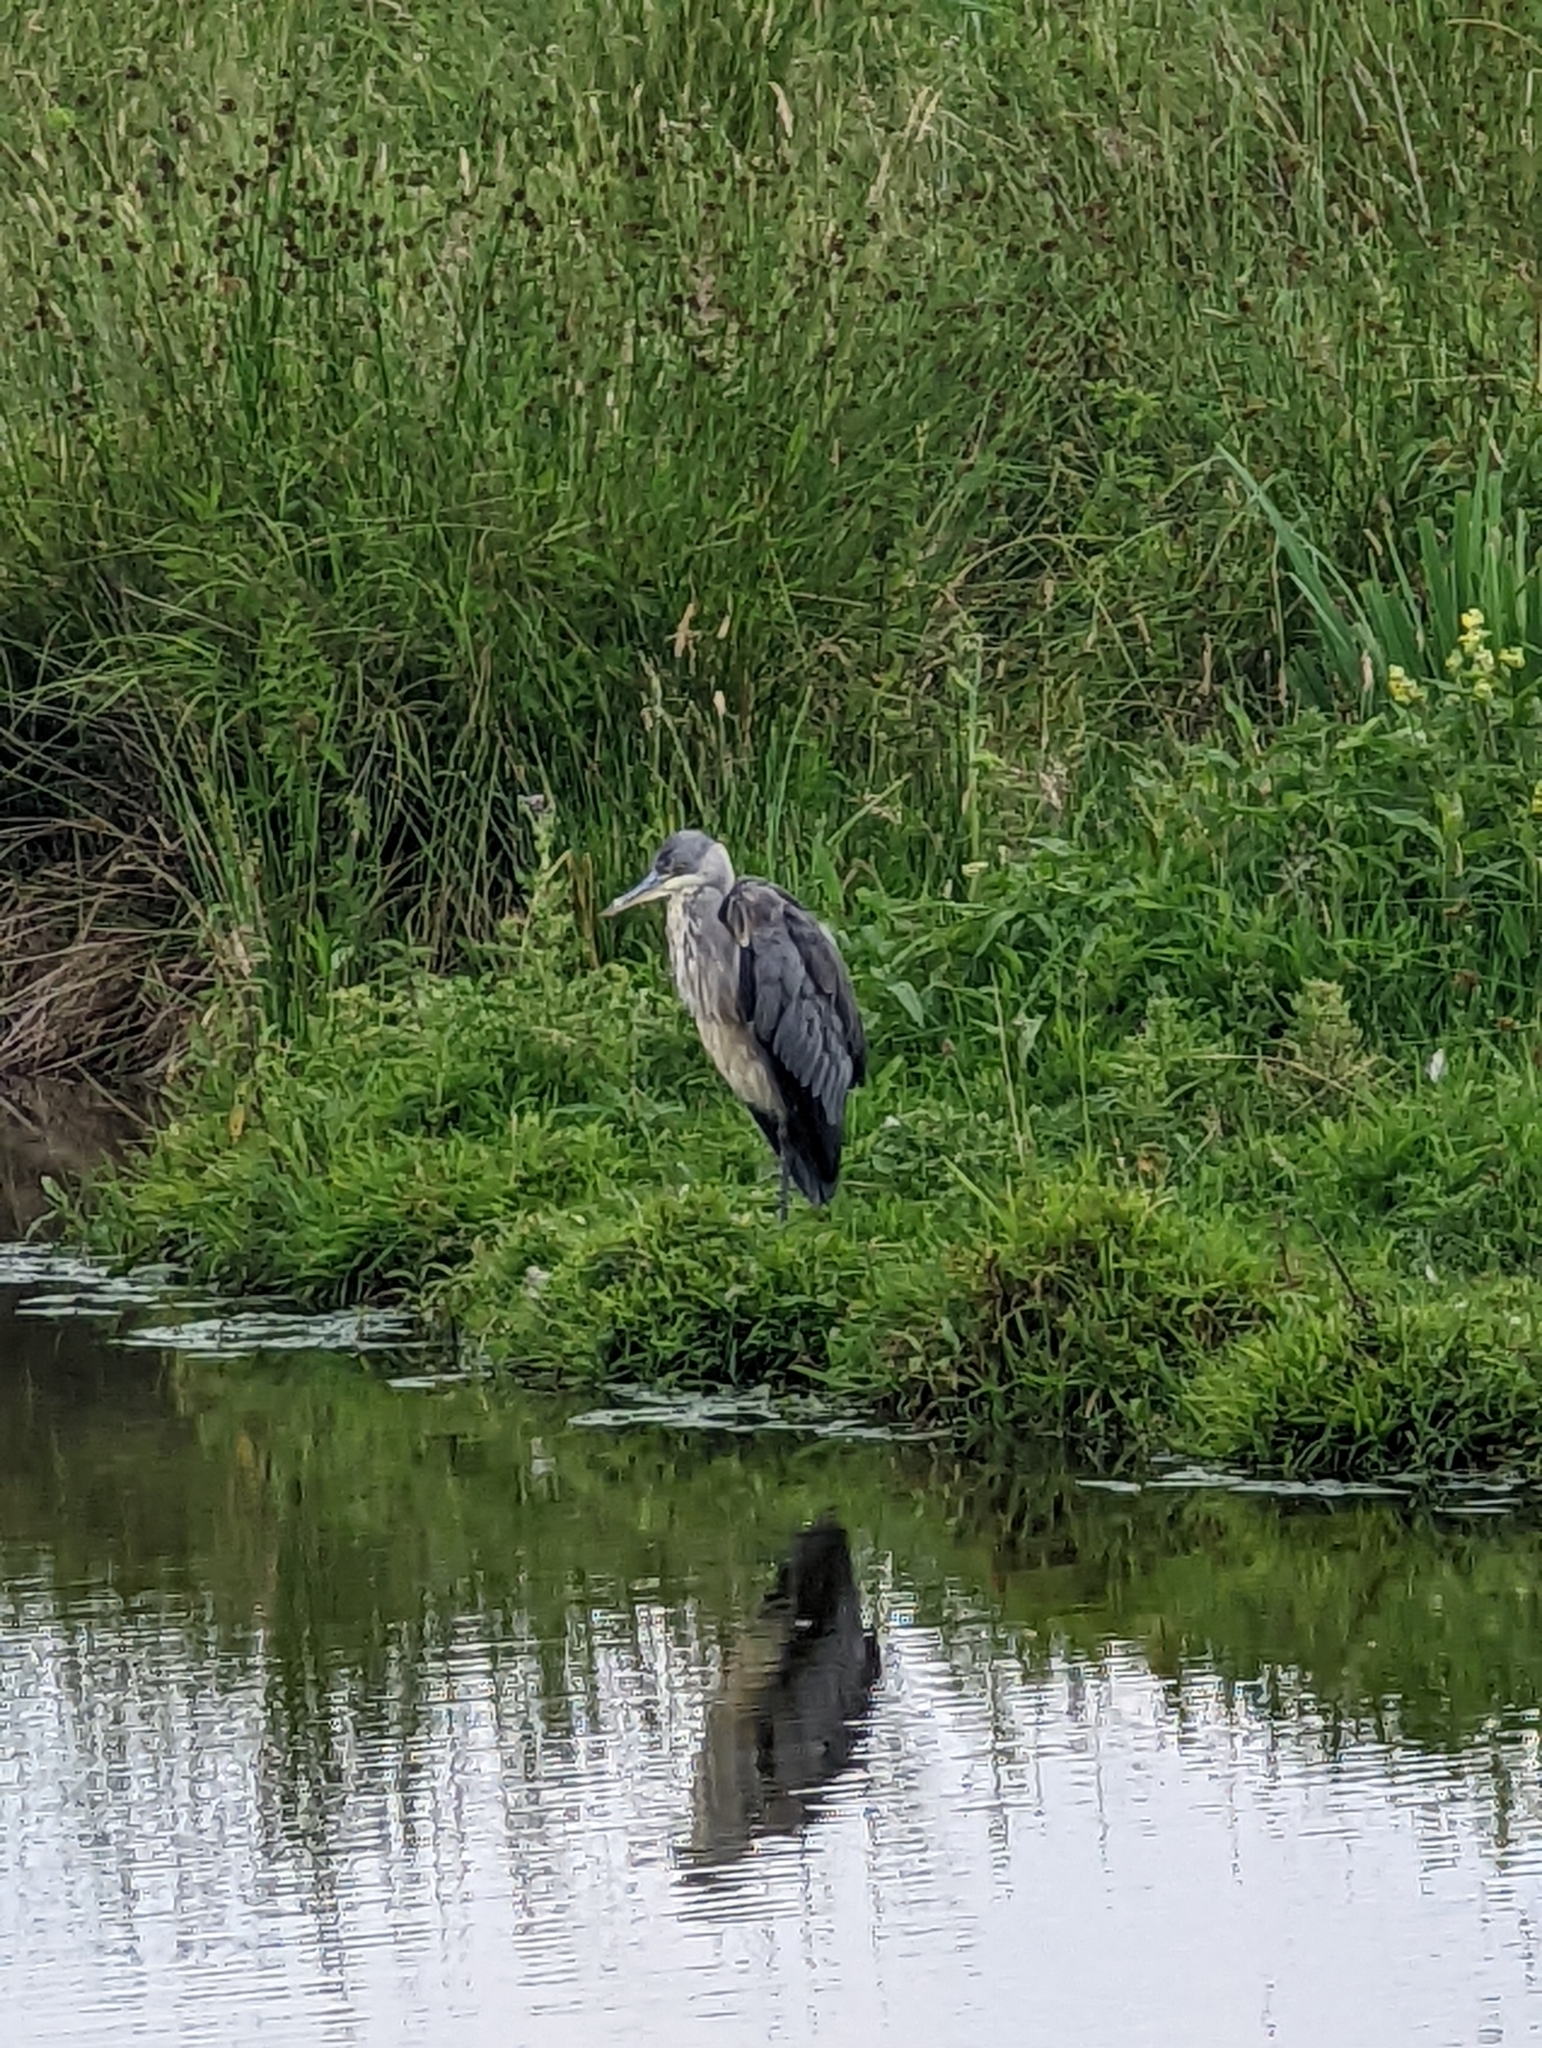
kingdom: Animalia
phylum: Chordata
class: Aves
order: Pelecaniformes
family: Ardeidae
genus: Ardea
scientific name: Ardea cinerea
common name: Grey heron
